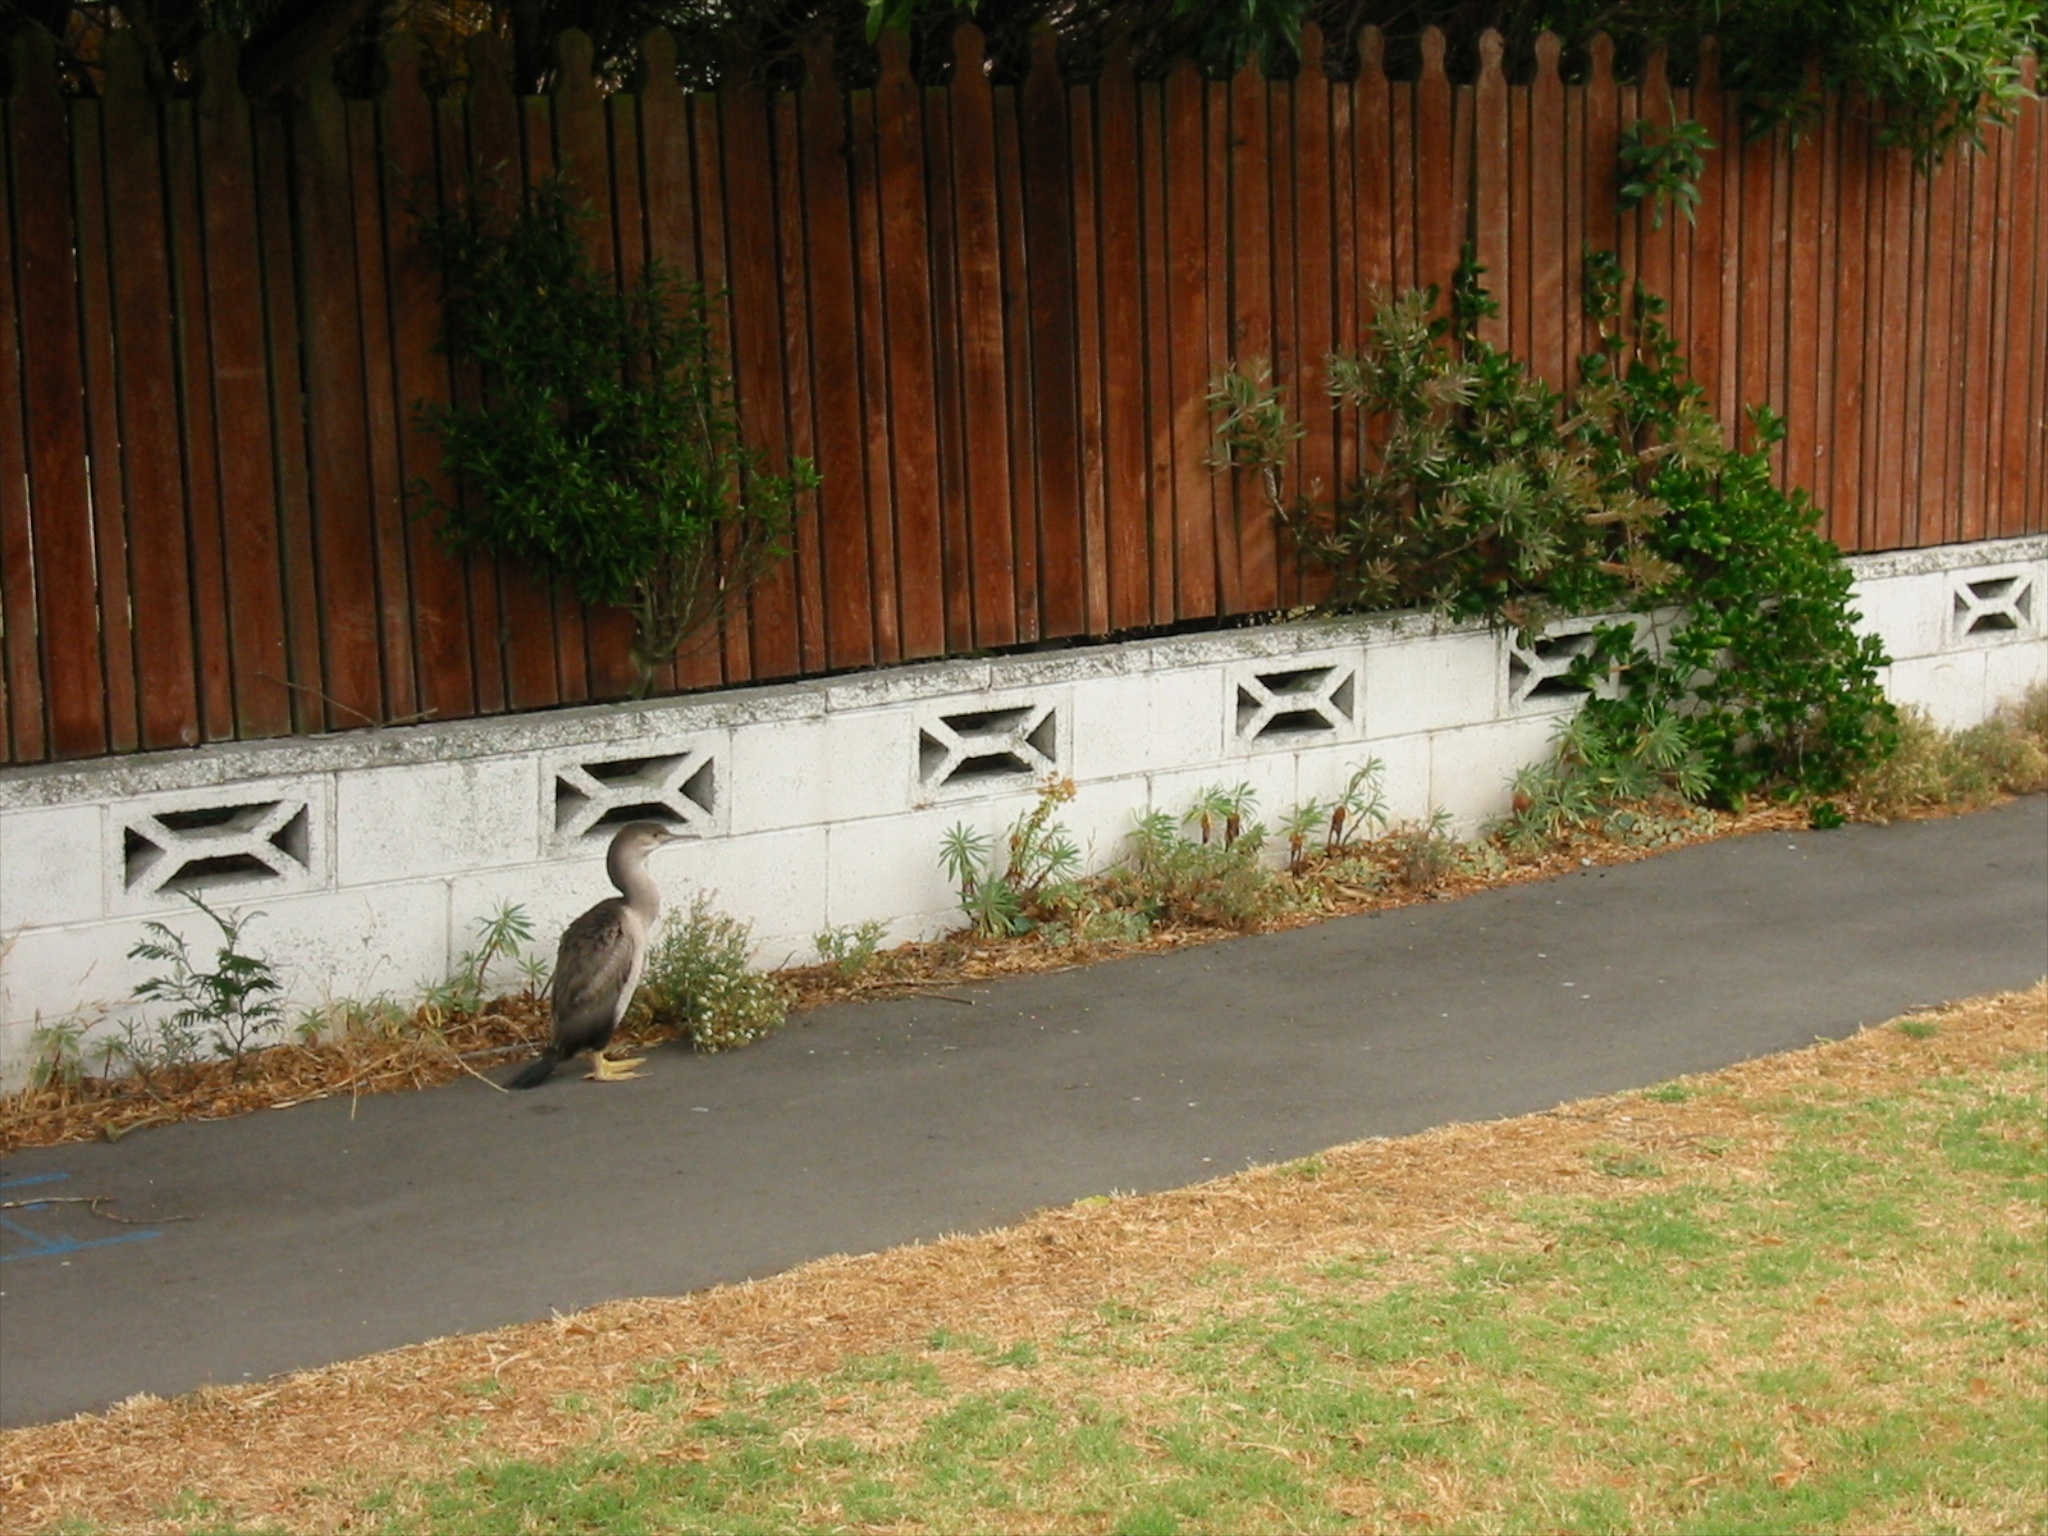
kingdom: Animalia
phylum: Chordata
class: Aves
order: Suliformes
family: Phalacrocoracidae
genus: Phalacrocorax
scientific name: Phalacrocorax punctatus
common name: Spotted shag
